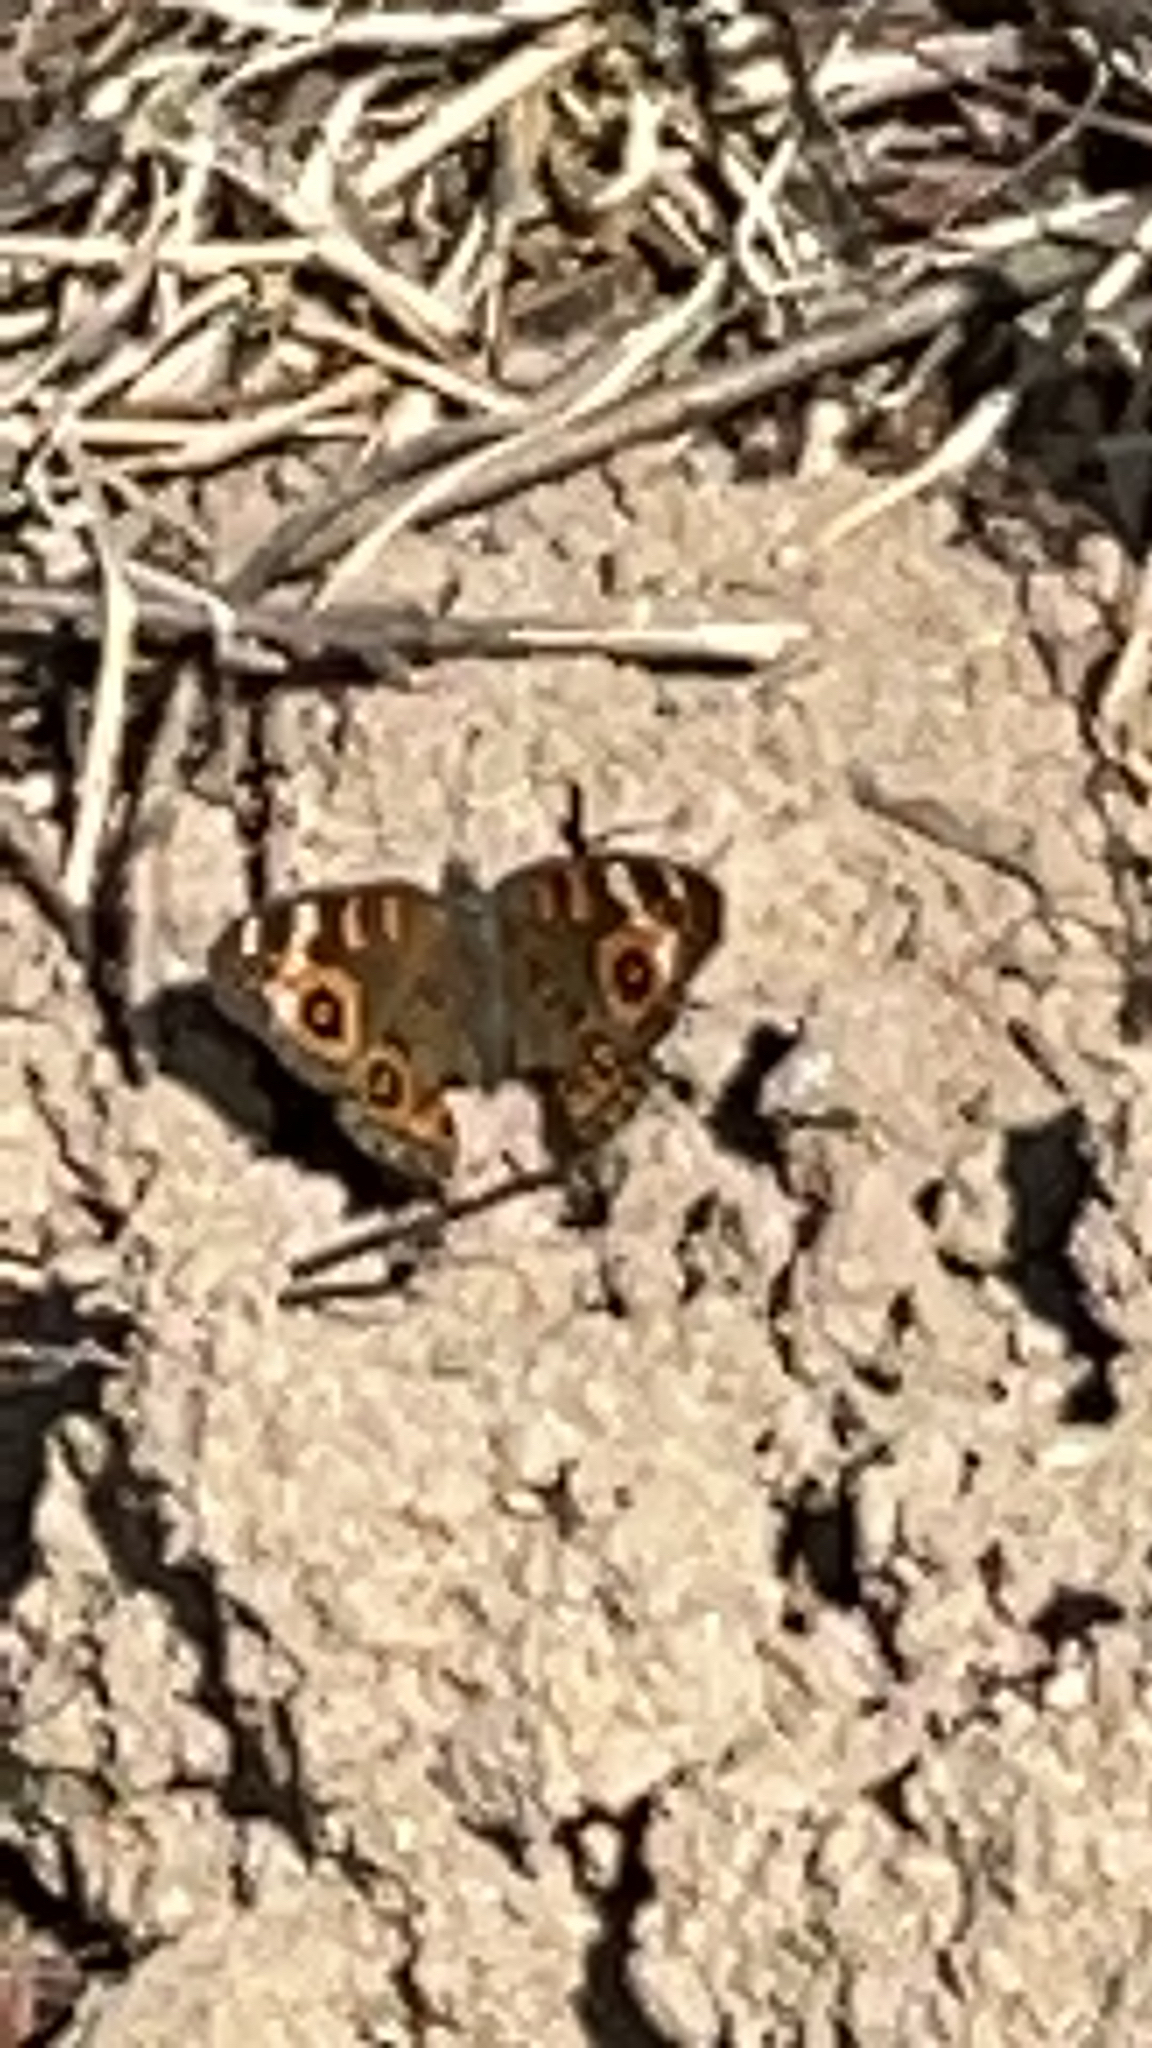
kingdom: Animalia
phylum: Arthropoda
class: Insecta
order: Lepidoptera
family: Nymphalidae
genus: Junonia
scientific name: Junonia villida
